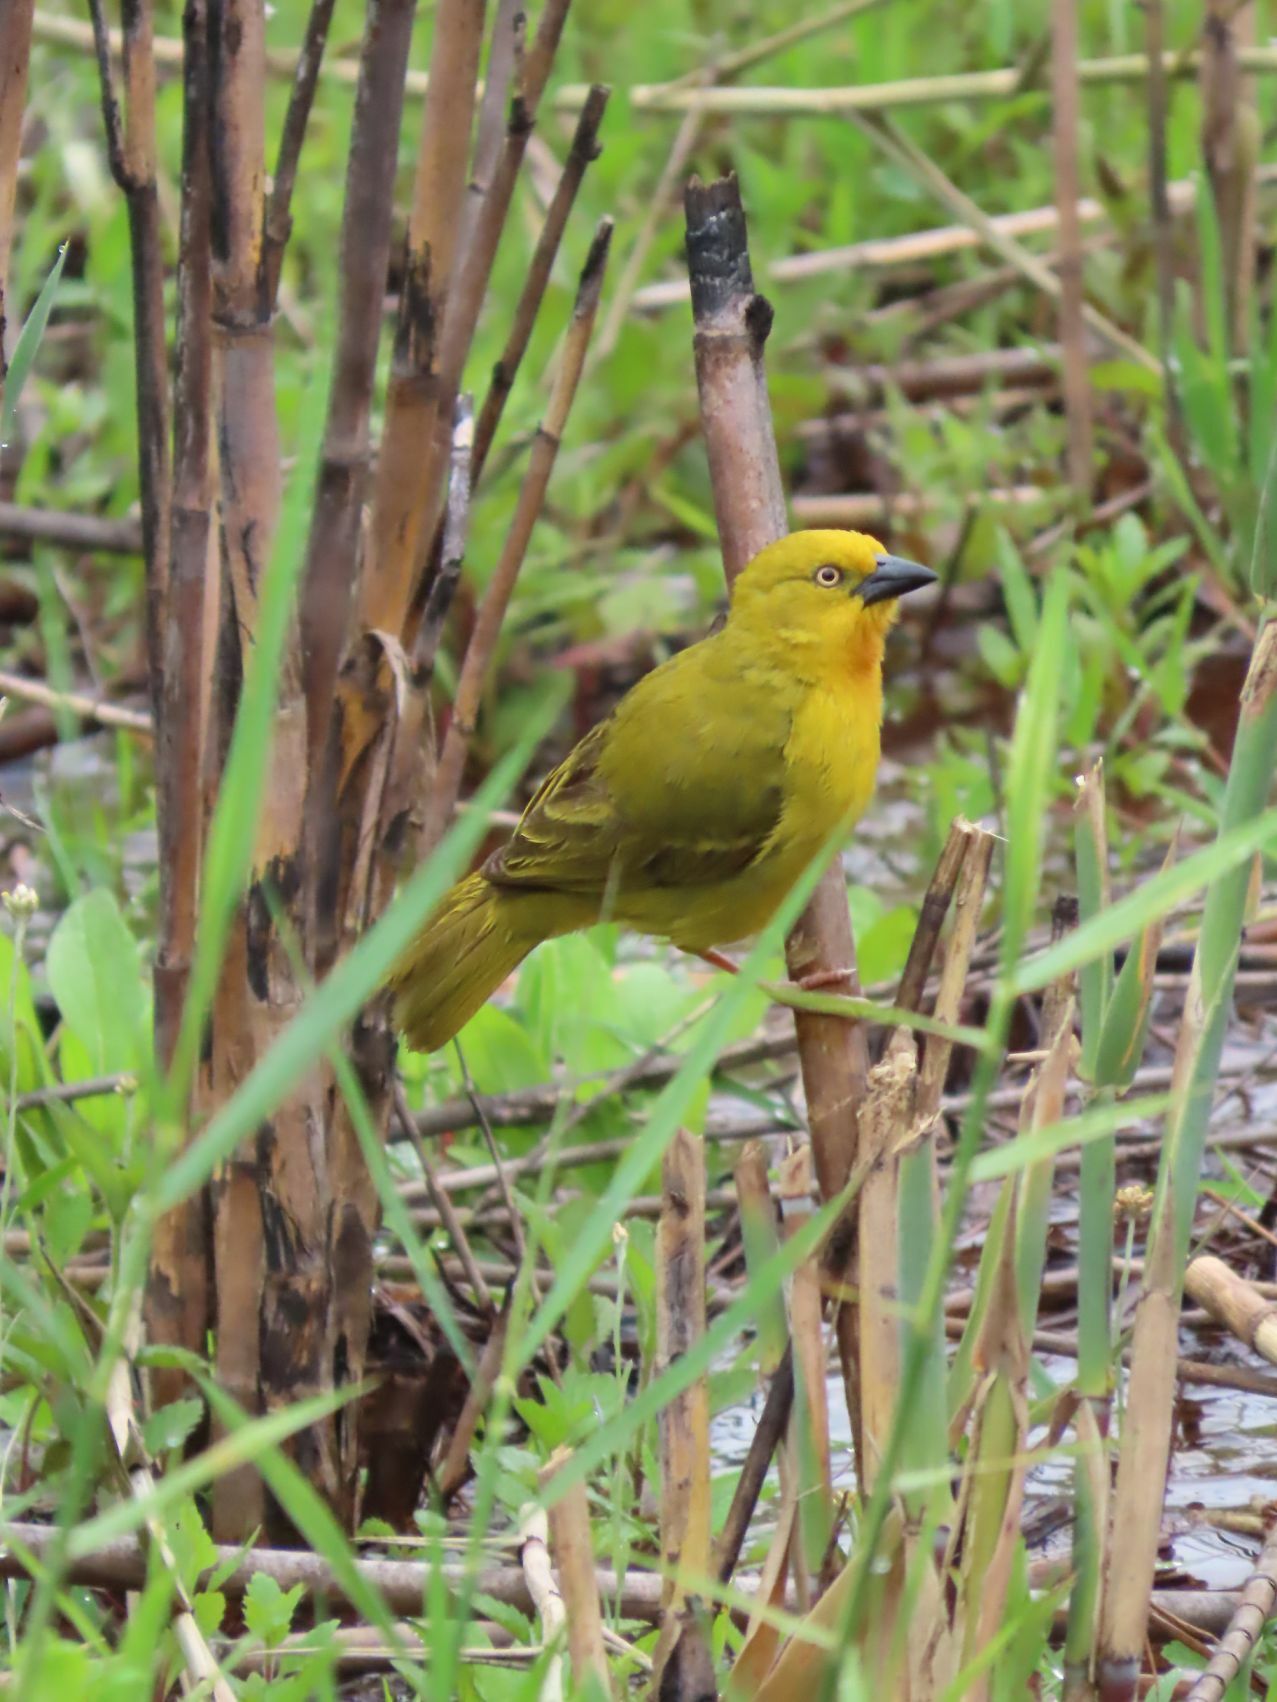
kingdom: Animalia
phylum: Chordata
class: Aves
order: Passeriformes
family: Ploceidae
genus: Ploceus
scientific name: Ploceus xanthops
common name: Holub's golden weaver
